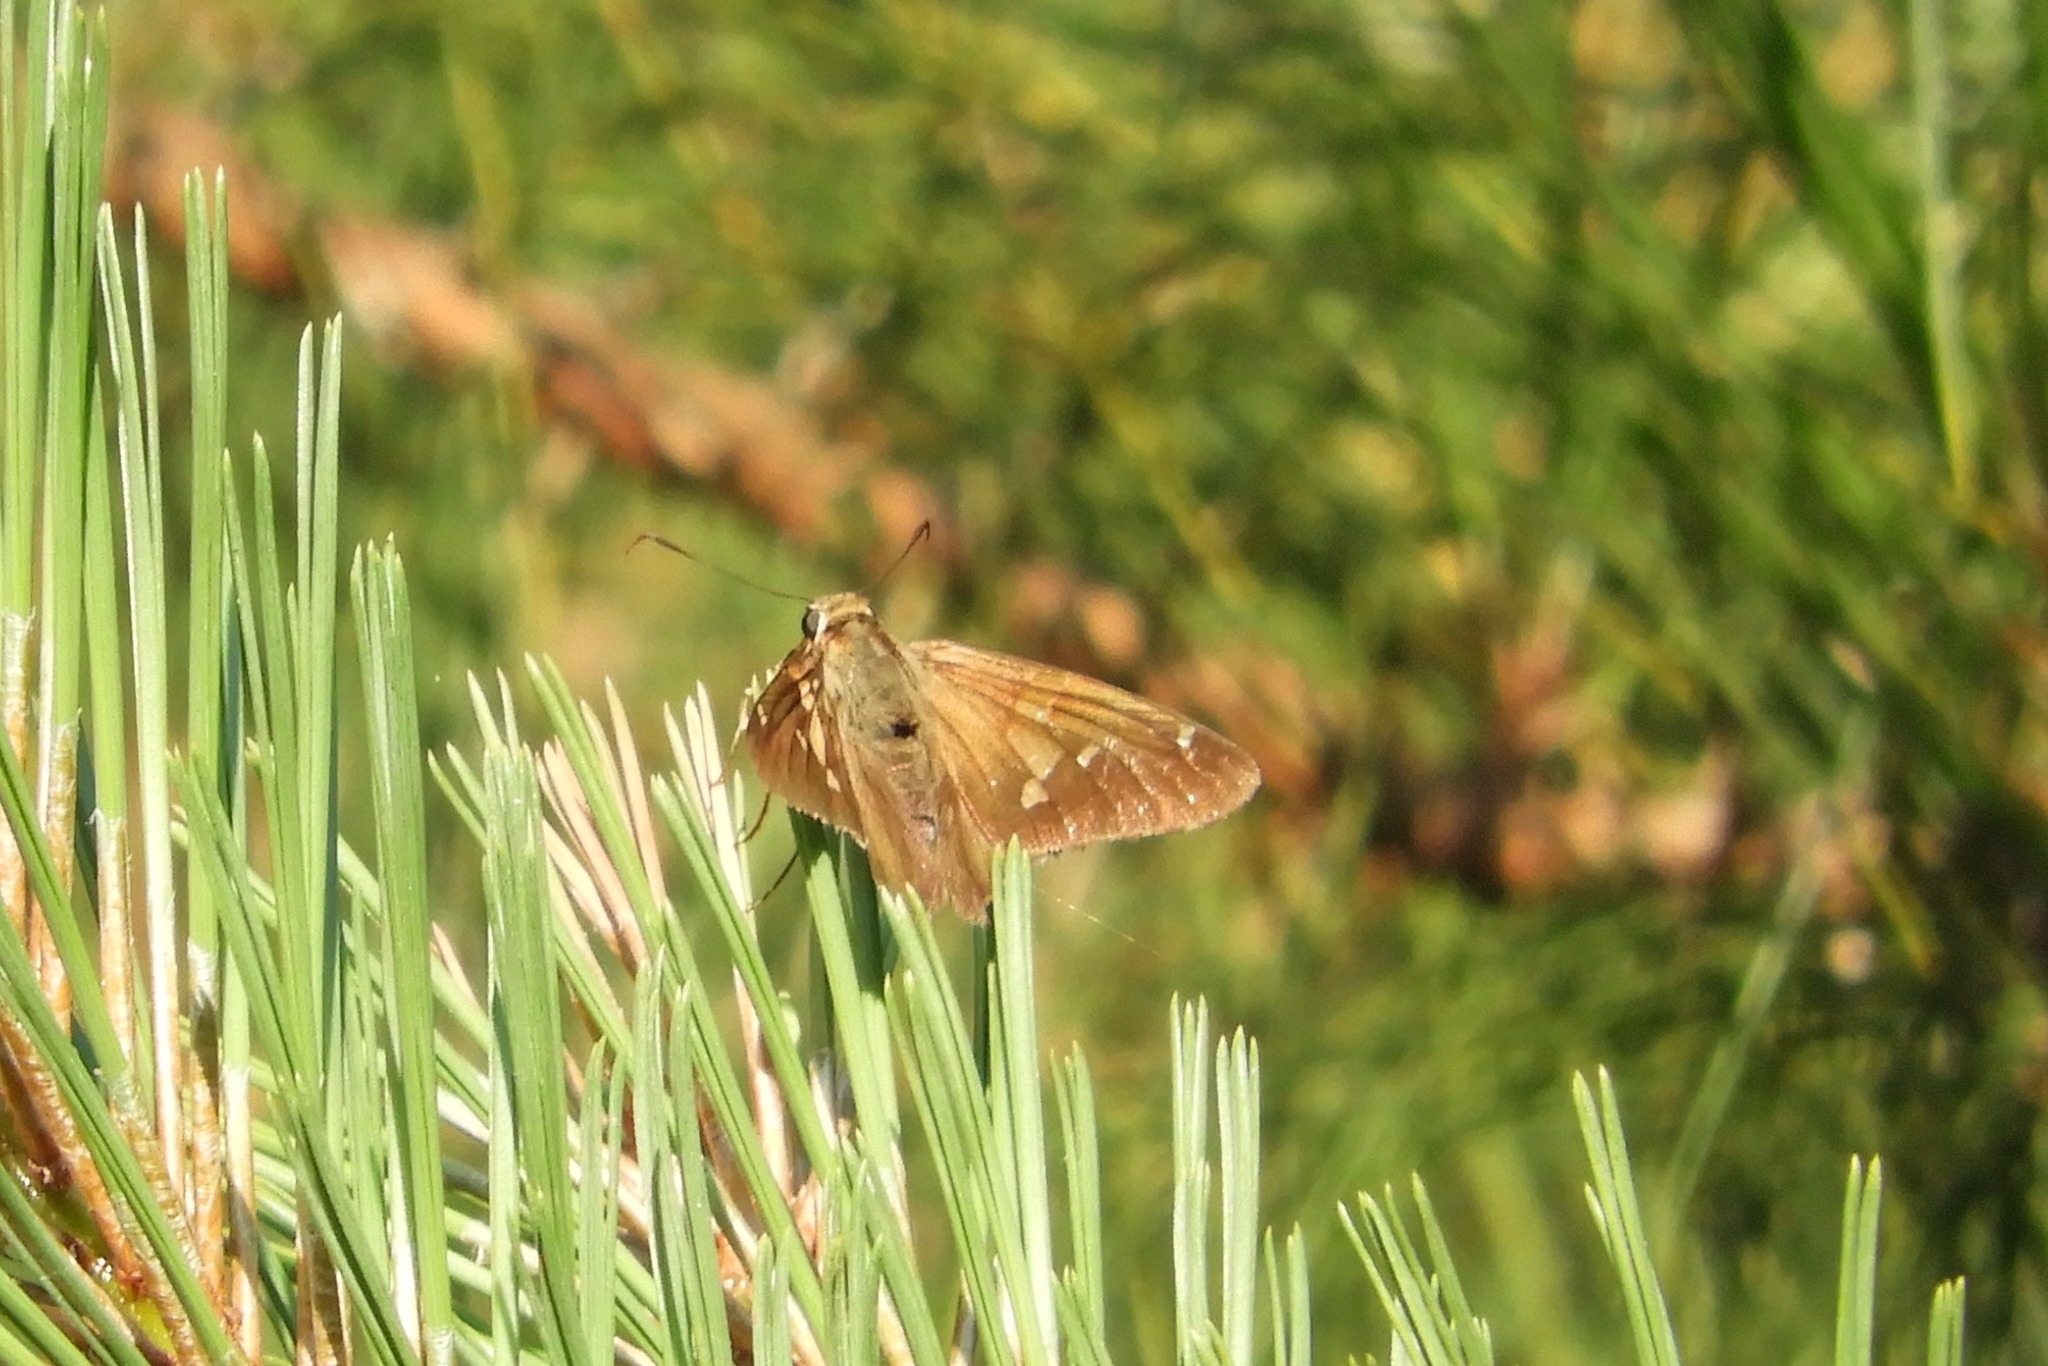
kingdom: Animalia
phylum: Arthropoda
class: Insecta
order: Lepidoptera
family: Hesperiidae
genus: Epargyreus
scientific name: Epargyreus clarus
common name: Silver-spotted skipper
